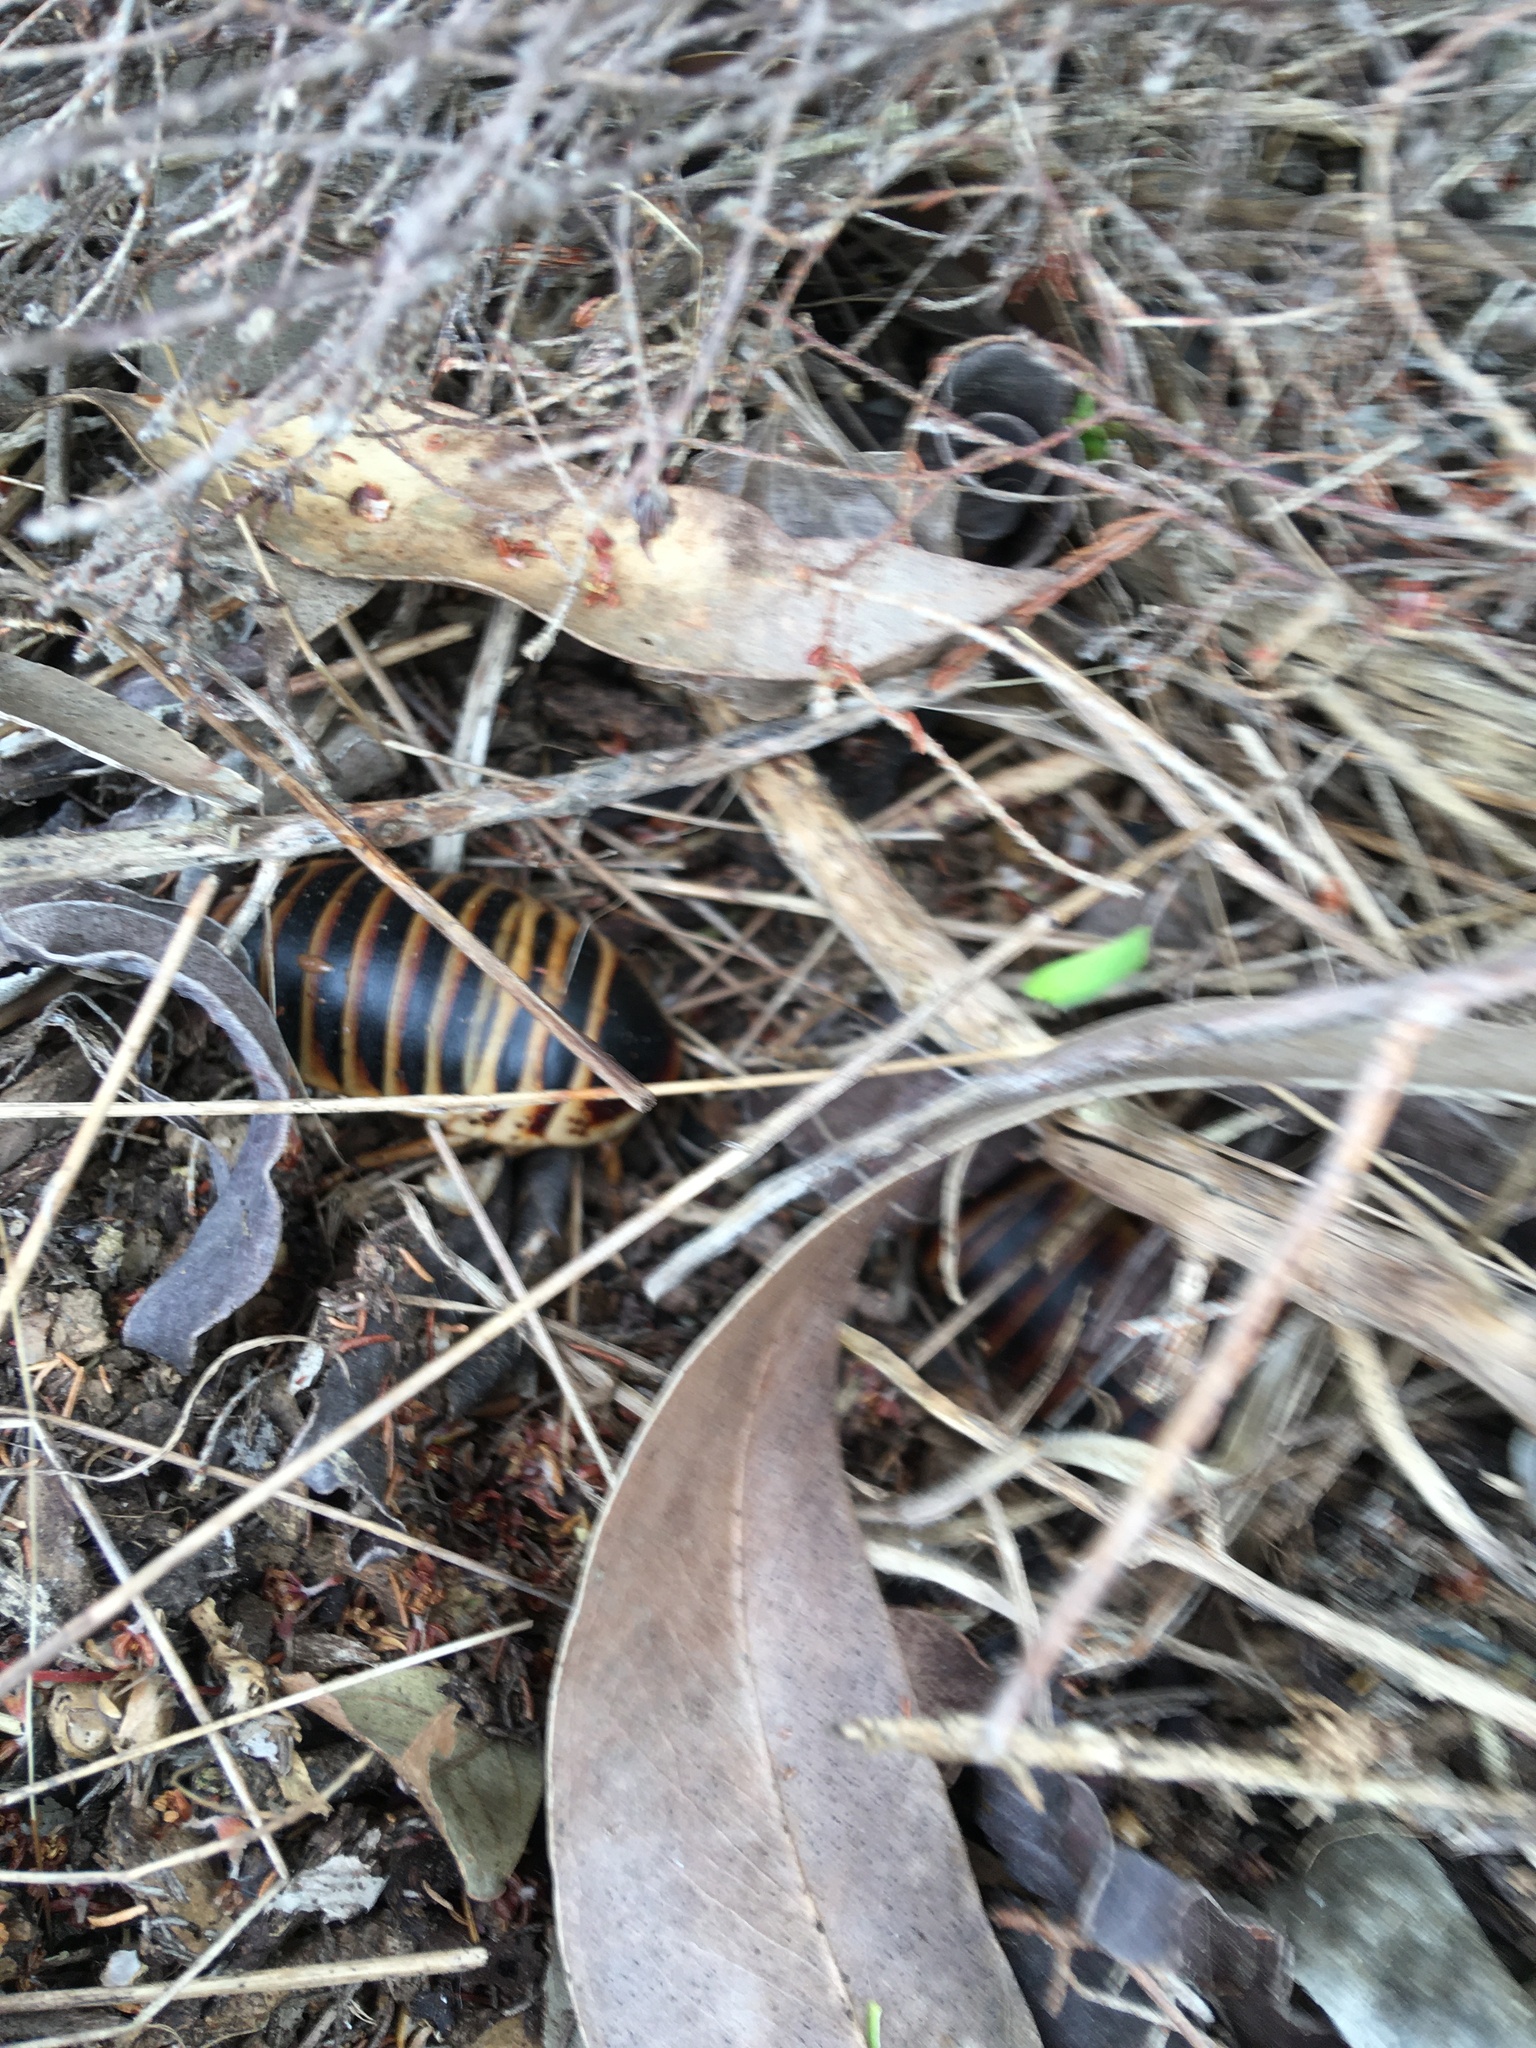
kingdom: Animalia
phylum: Arthropoda
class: Insecta
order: Blattodea
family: Blaberidae
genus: Aptera
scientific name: Aptera fusca
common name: Cape mountain cockroach
